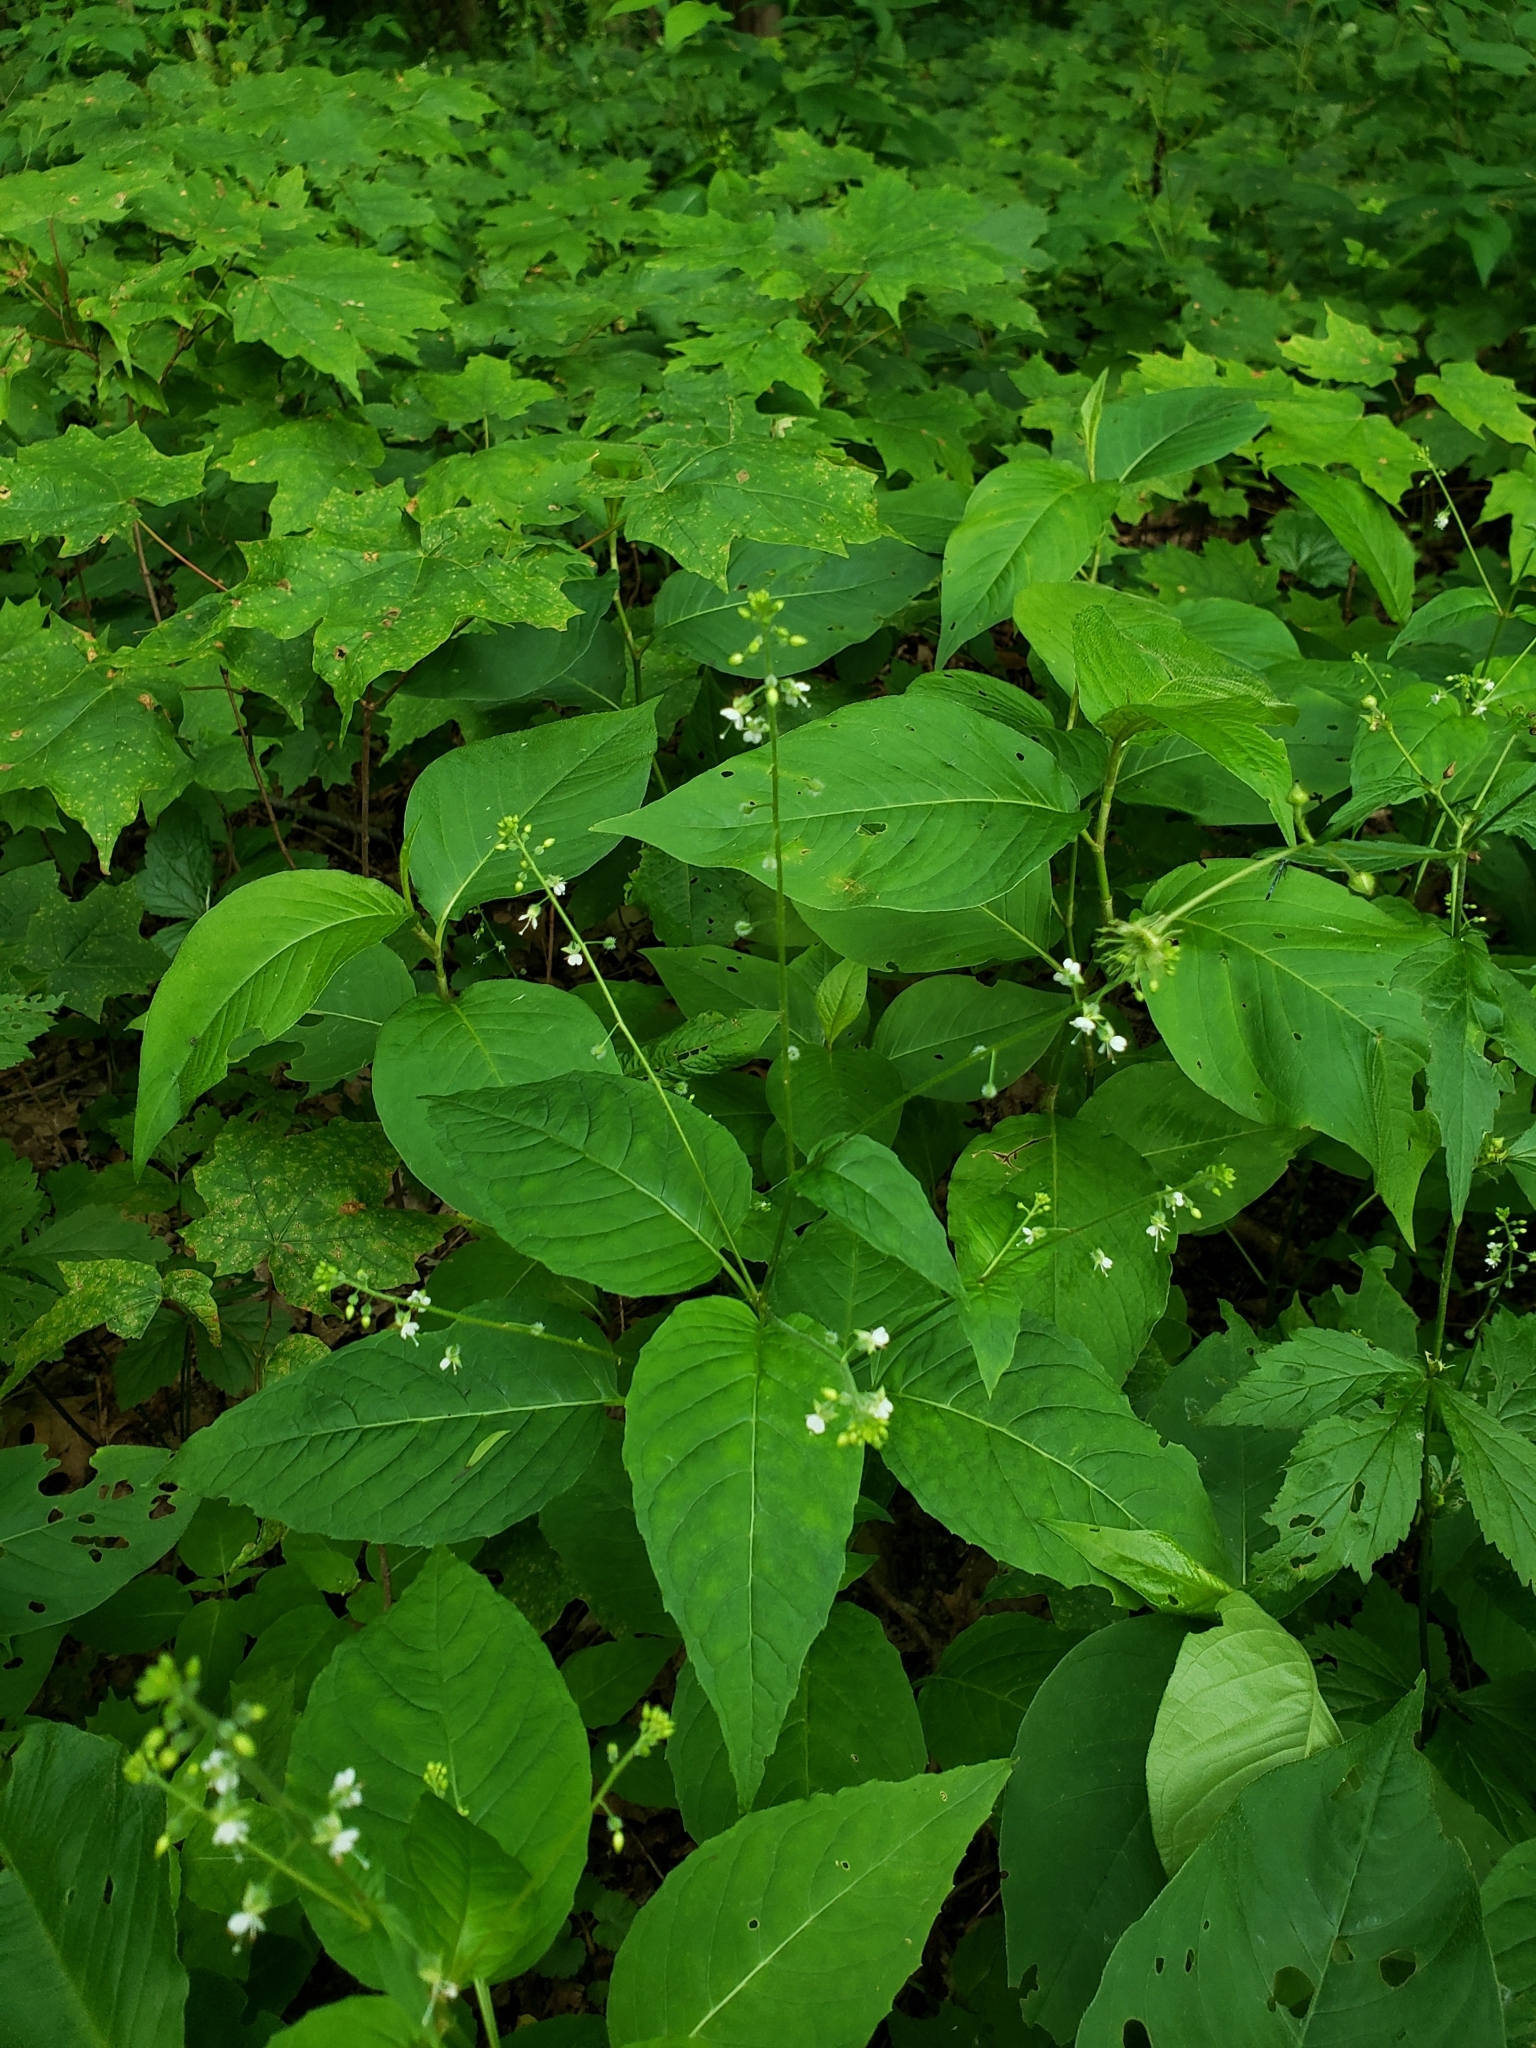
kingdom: Plantae
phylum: Tracheophyta
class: Magnoliopsida
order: Myrtales
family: Onagraceae
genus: Circaea
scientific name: Circaea canadensis
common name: Broad-leaved enchanter's nightshade
